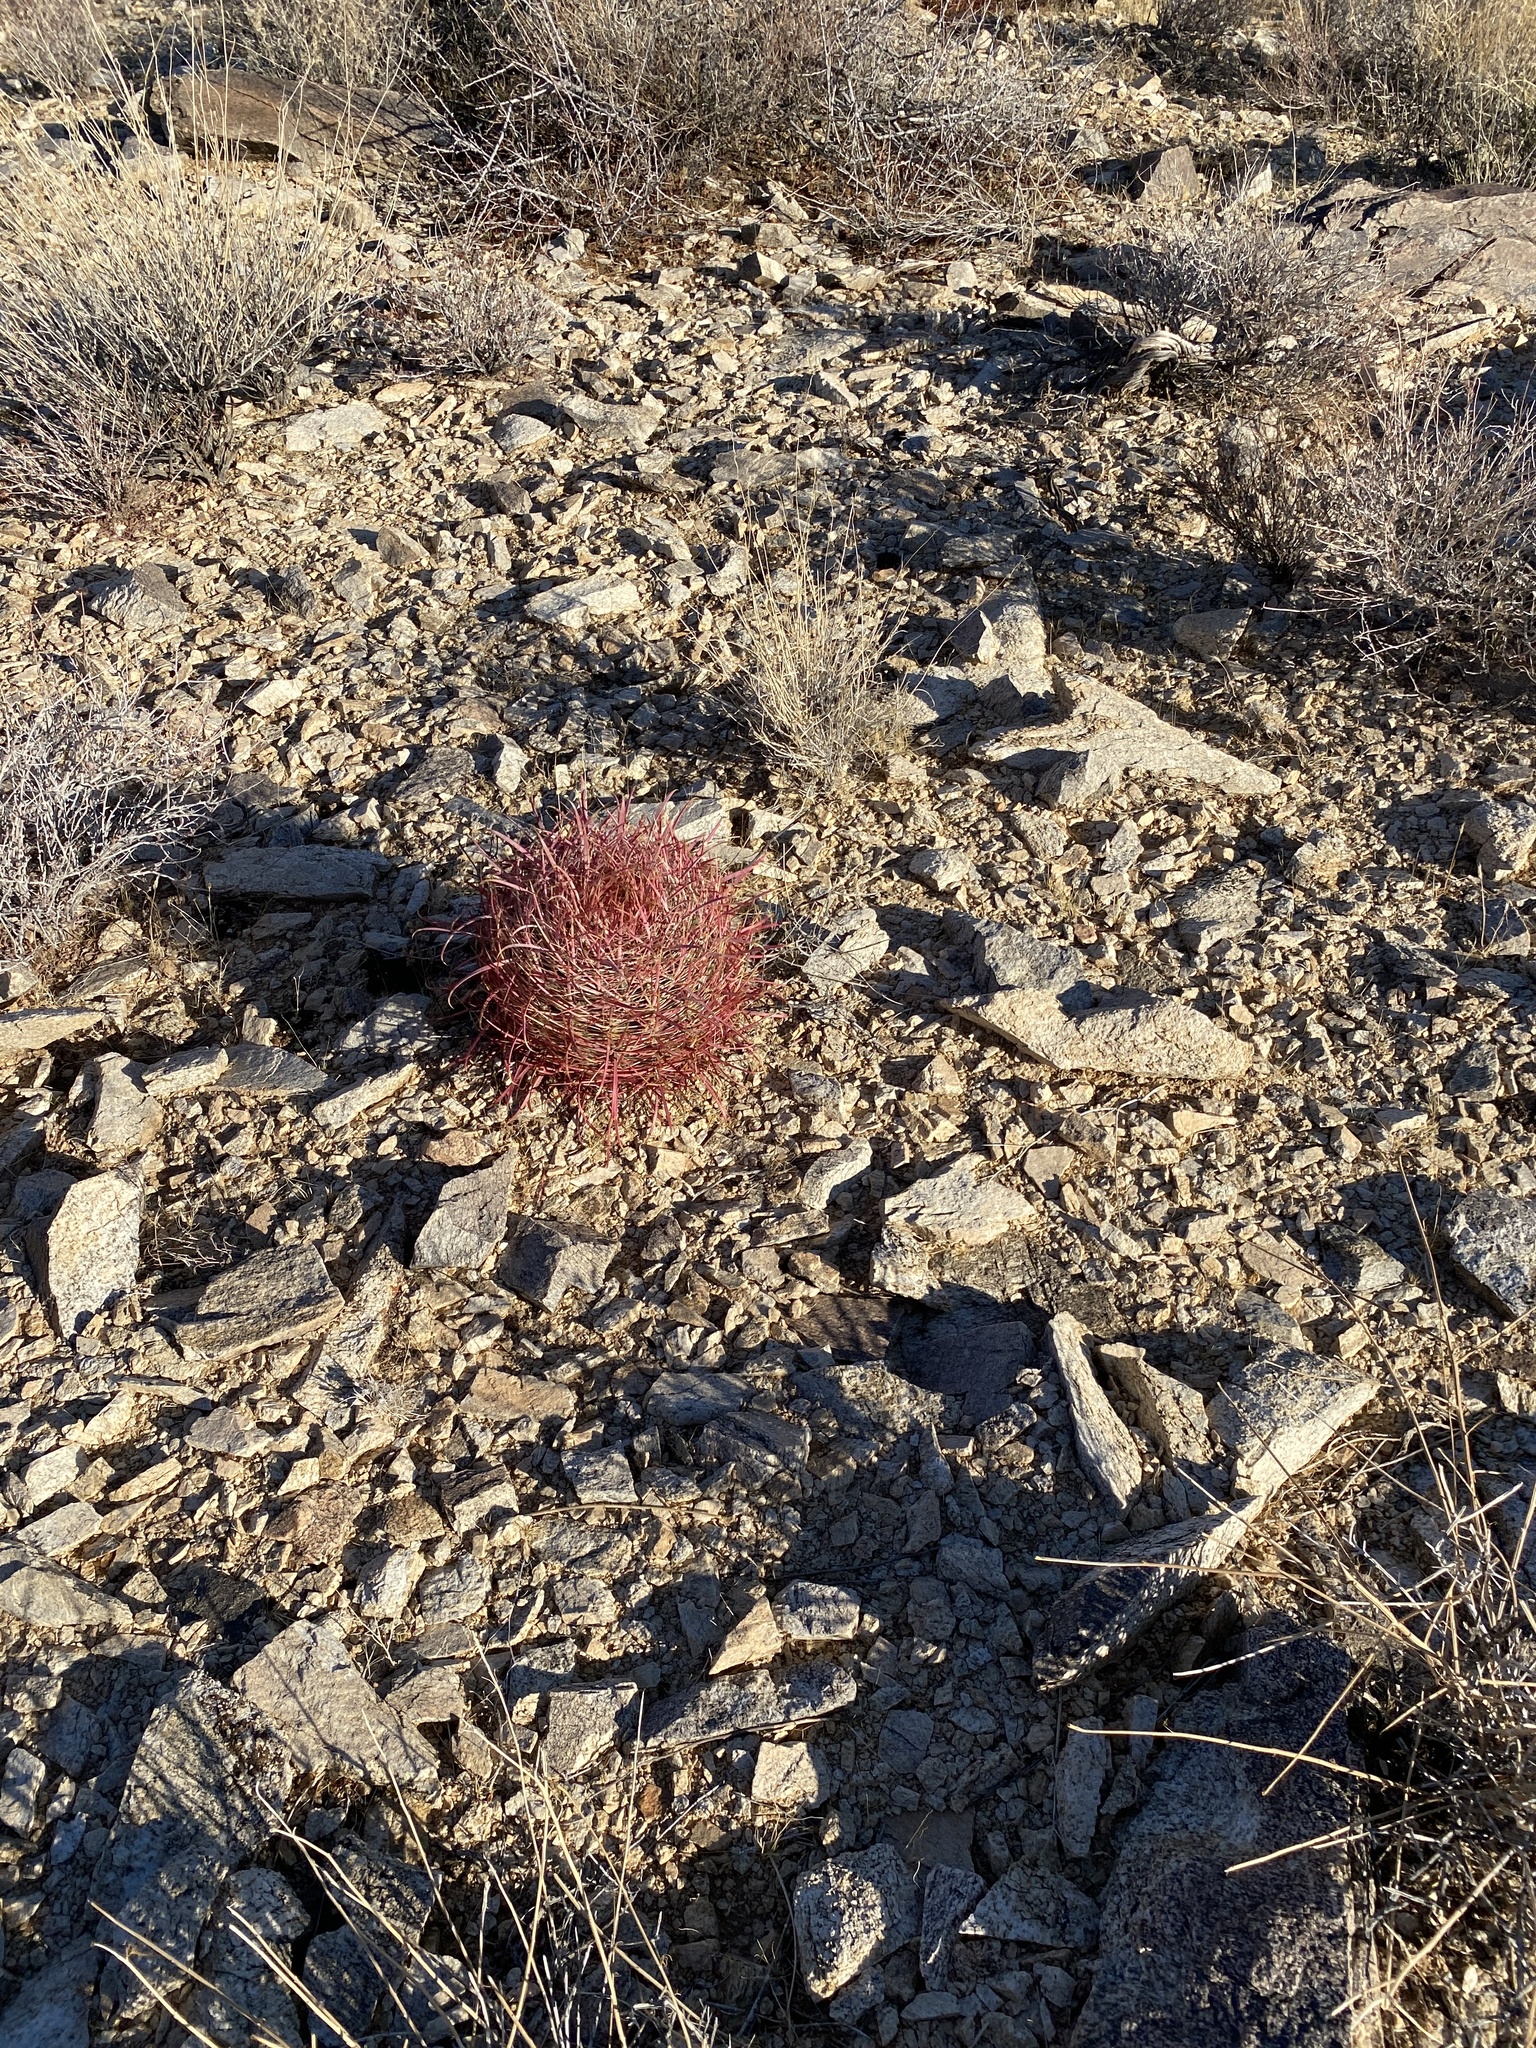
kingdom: Plantae
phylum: Tracheophyta
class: Magnoliopsida
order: Caryophyllales
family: Cactaceae
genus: Ferocactus
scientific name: Ferocactus cylindraceus
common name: California barrel cactus
